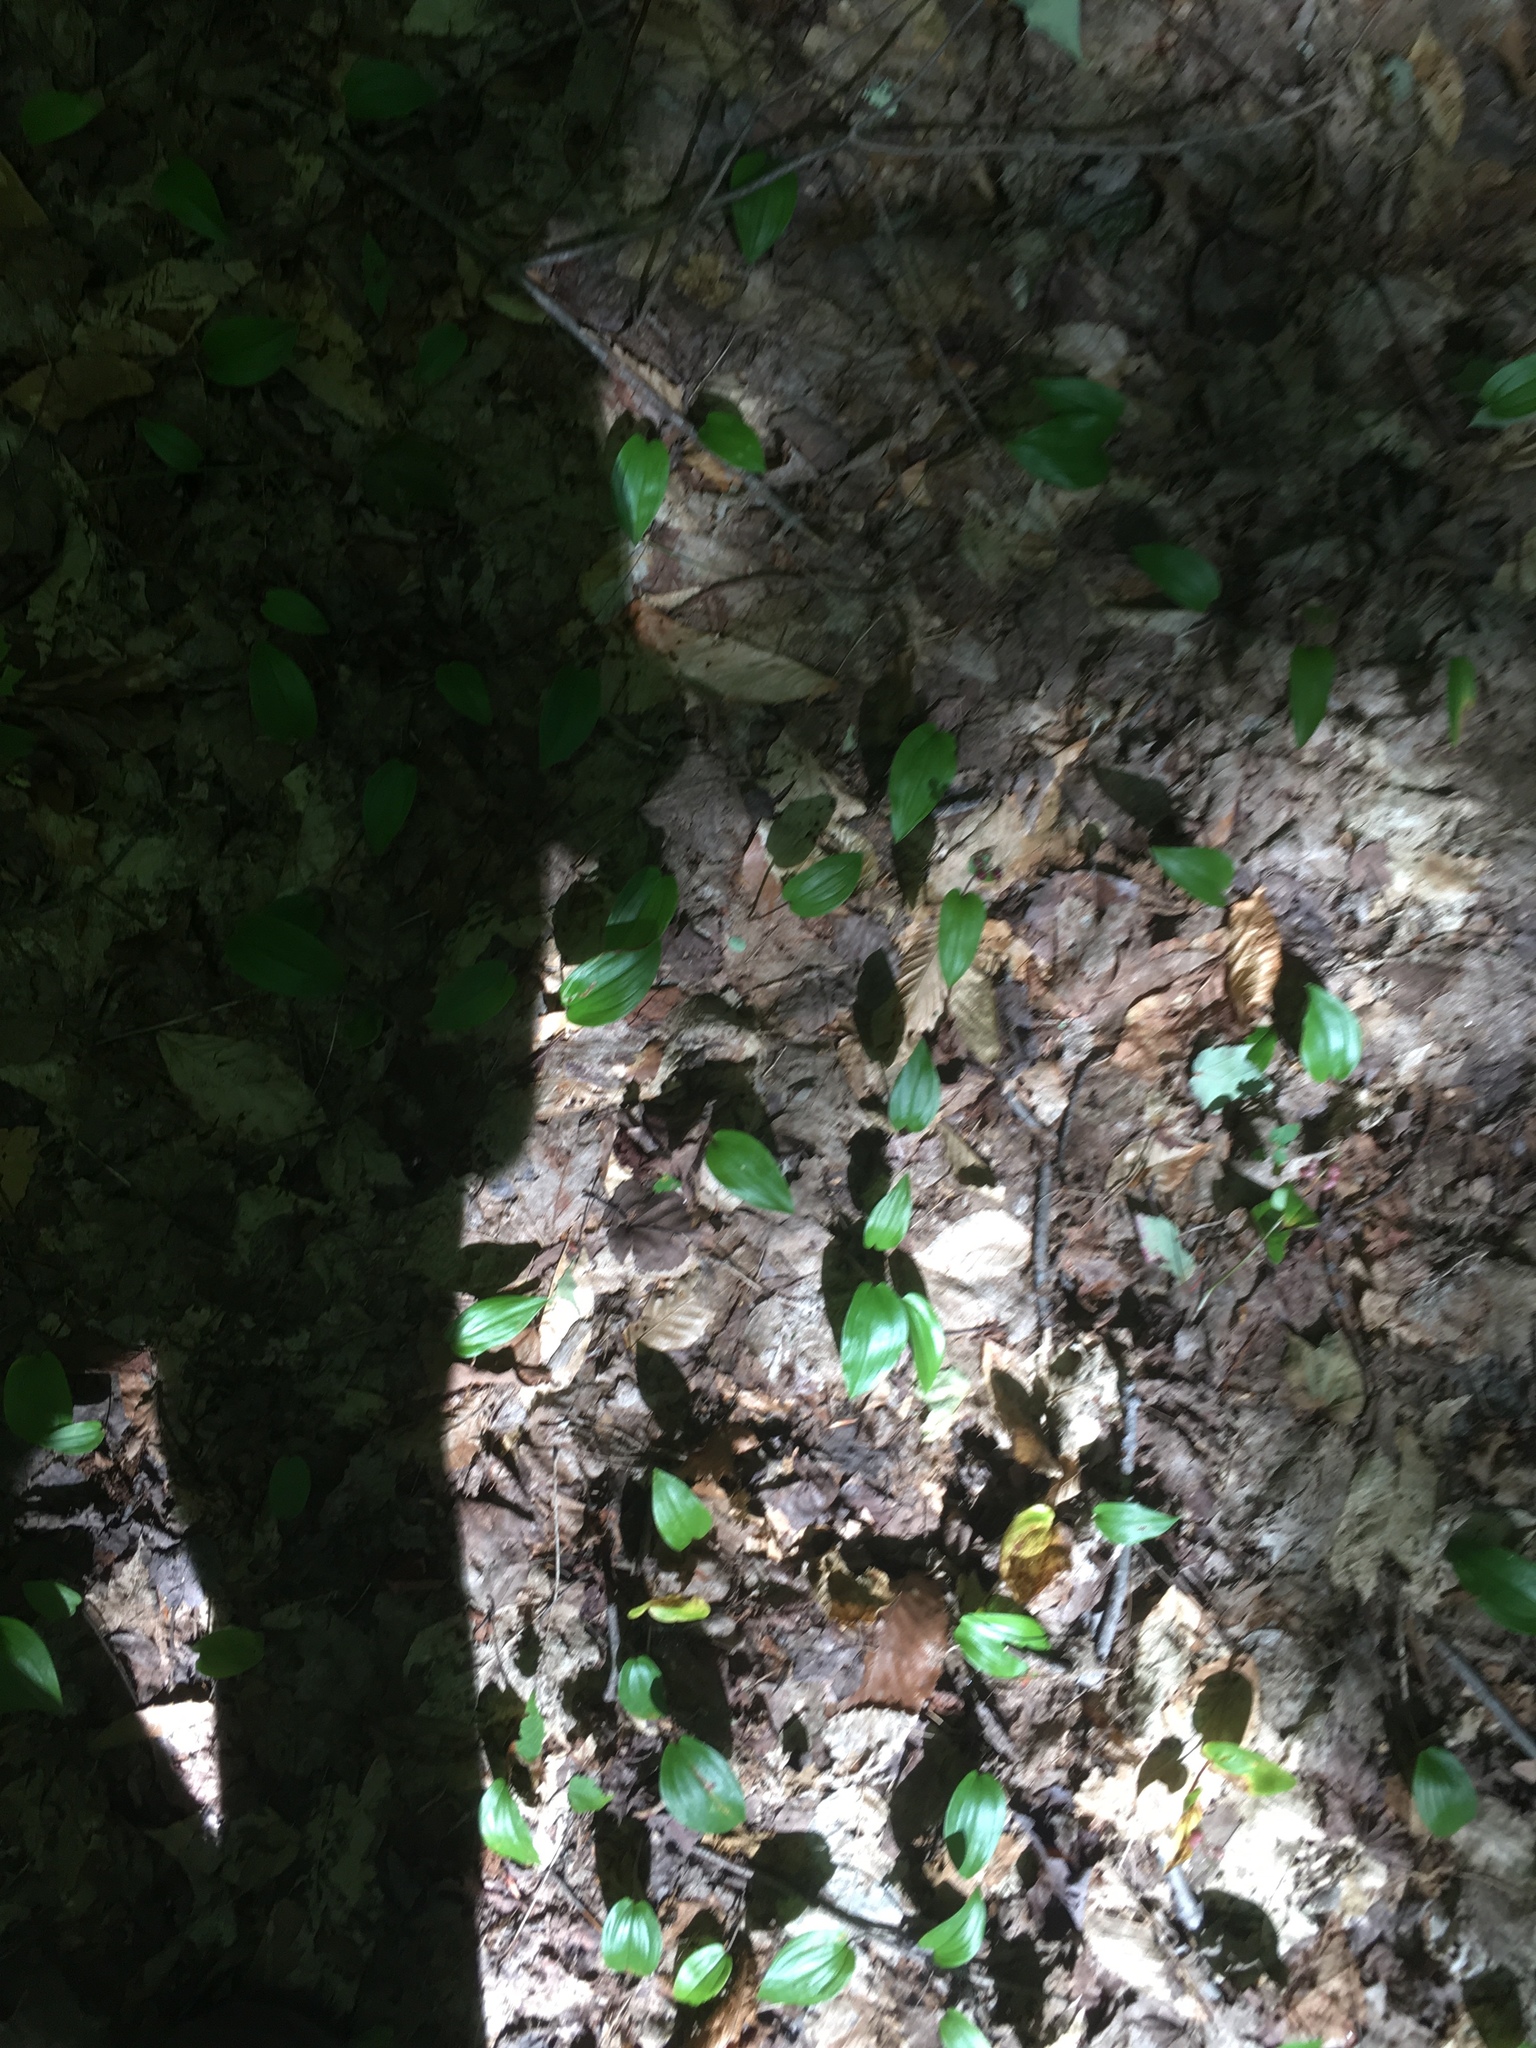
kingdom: Plantae
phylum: Tracheophyta
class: Liliopsida
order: Asparagales
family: Asparagaceae
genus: Maianthemum
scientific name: Maianthemum canadense
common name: False lily-of-the-valley
